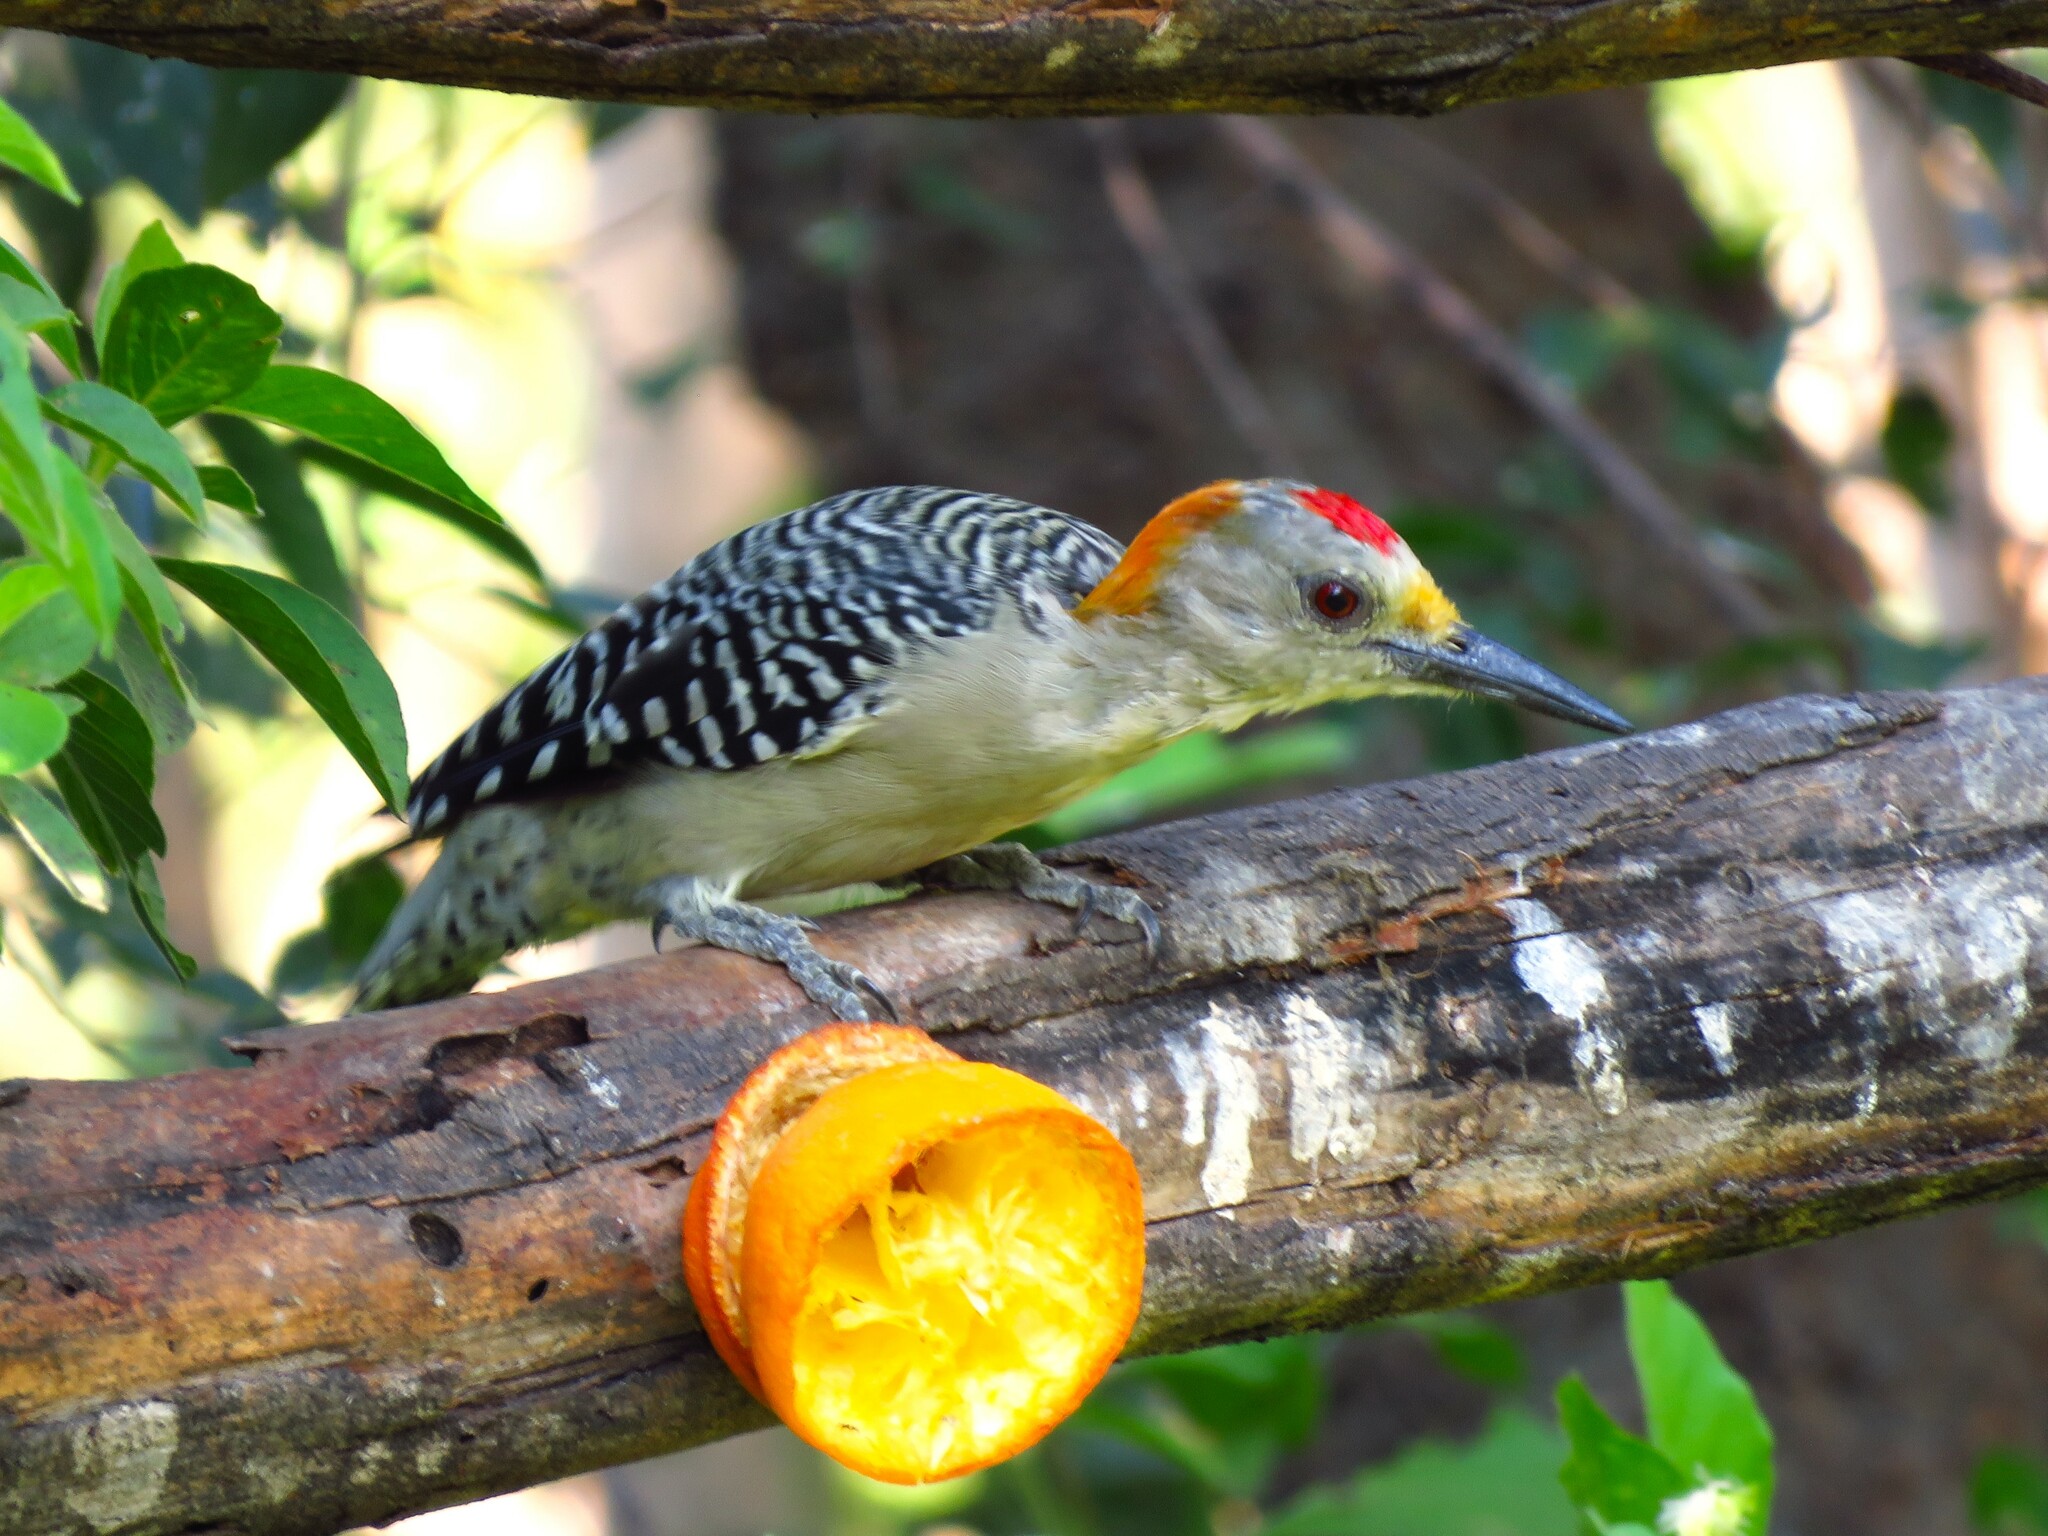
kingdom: Animalia
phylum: Chordata
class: Aves
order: Piciformes
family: Picidae
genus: Melanerpes
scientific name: Melanerpes aurifrons
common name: Golden-fronted woodpecker
